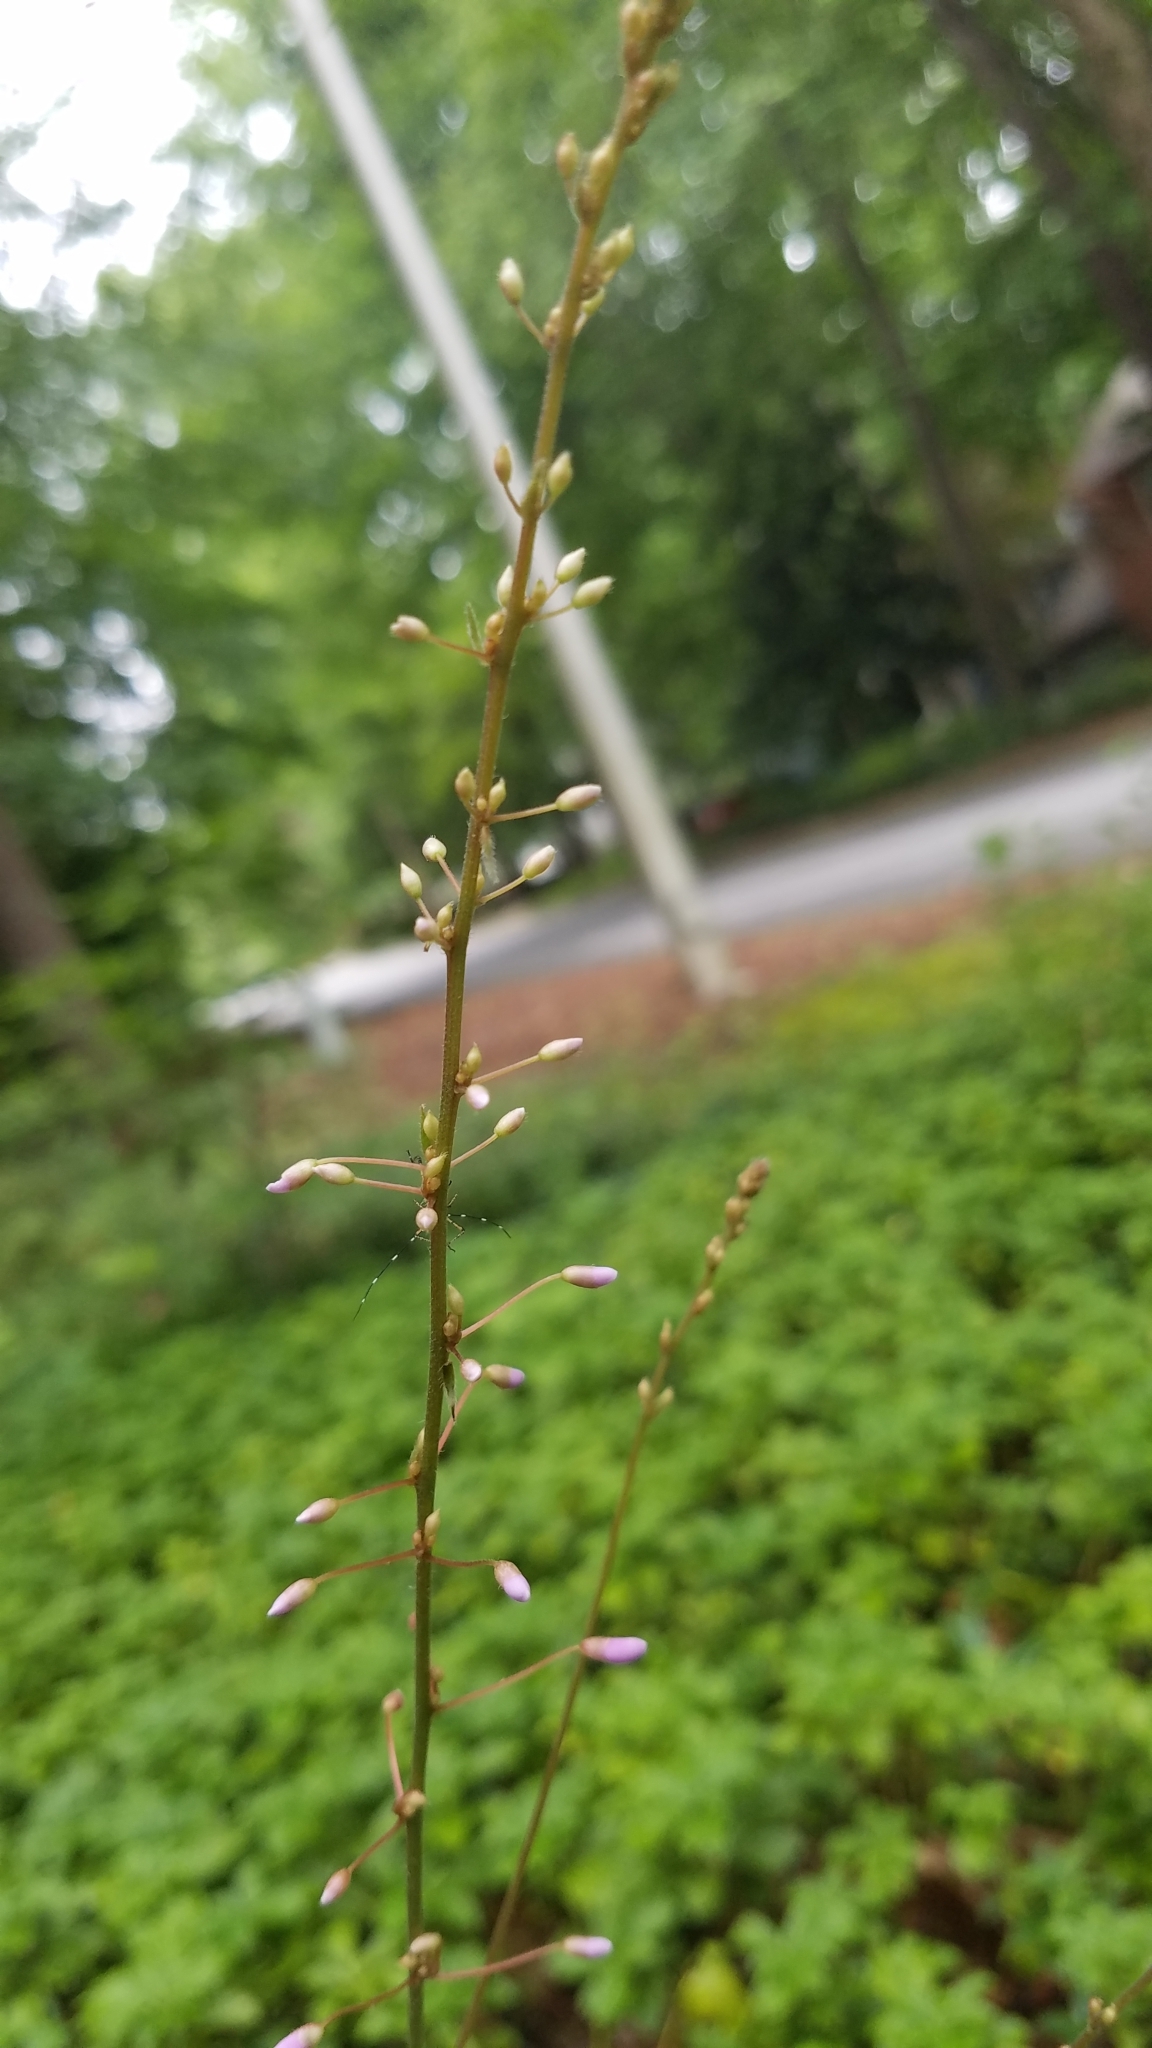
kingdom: Plantae
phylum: Tracheophyta
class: Magnoliopsida
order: Fabales
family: Fabaceae
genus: Hylodesmum
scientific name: Hylodesmum nudiflorum
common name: Bare-stemmed tick-trefoil
